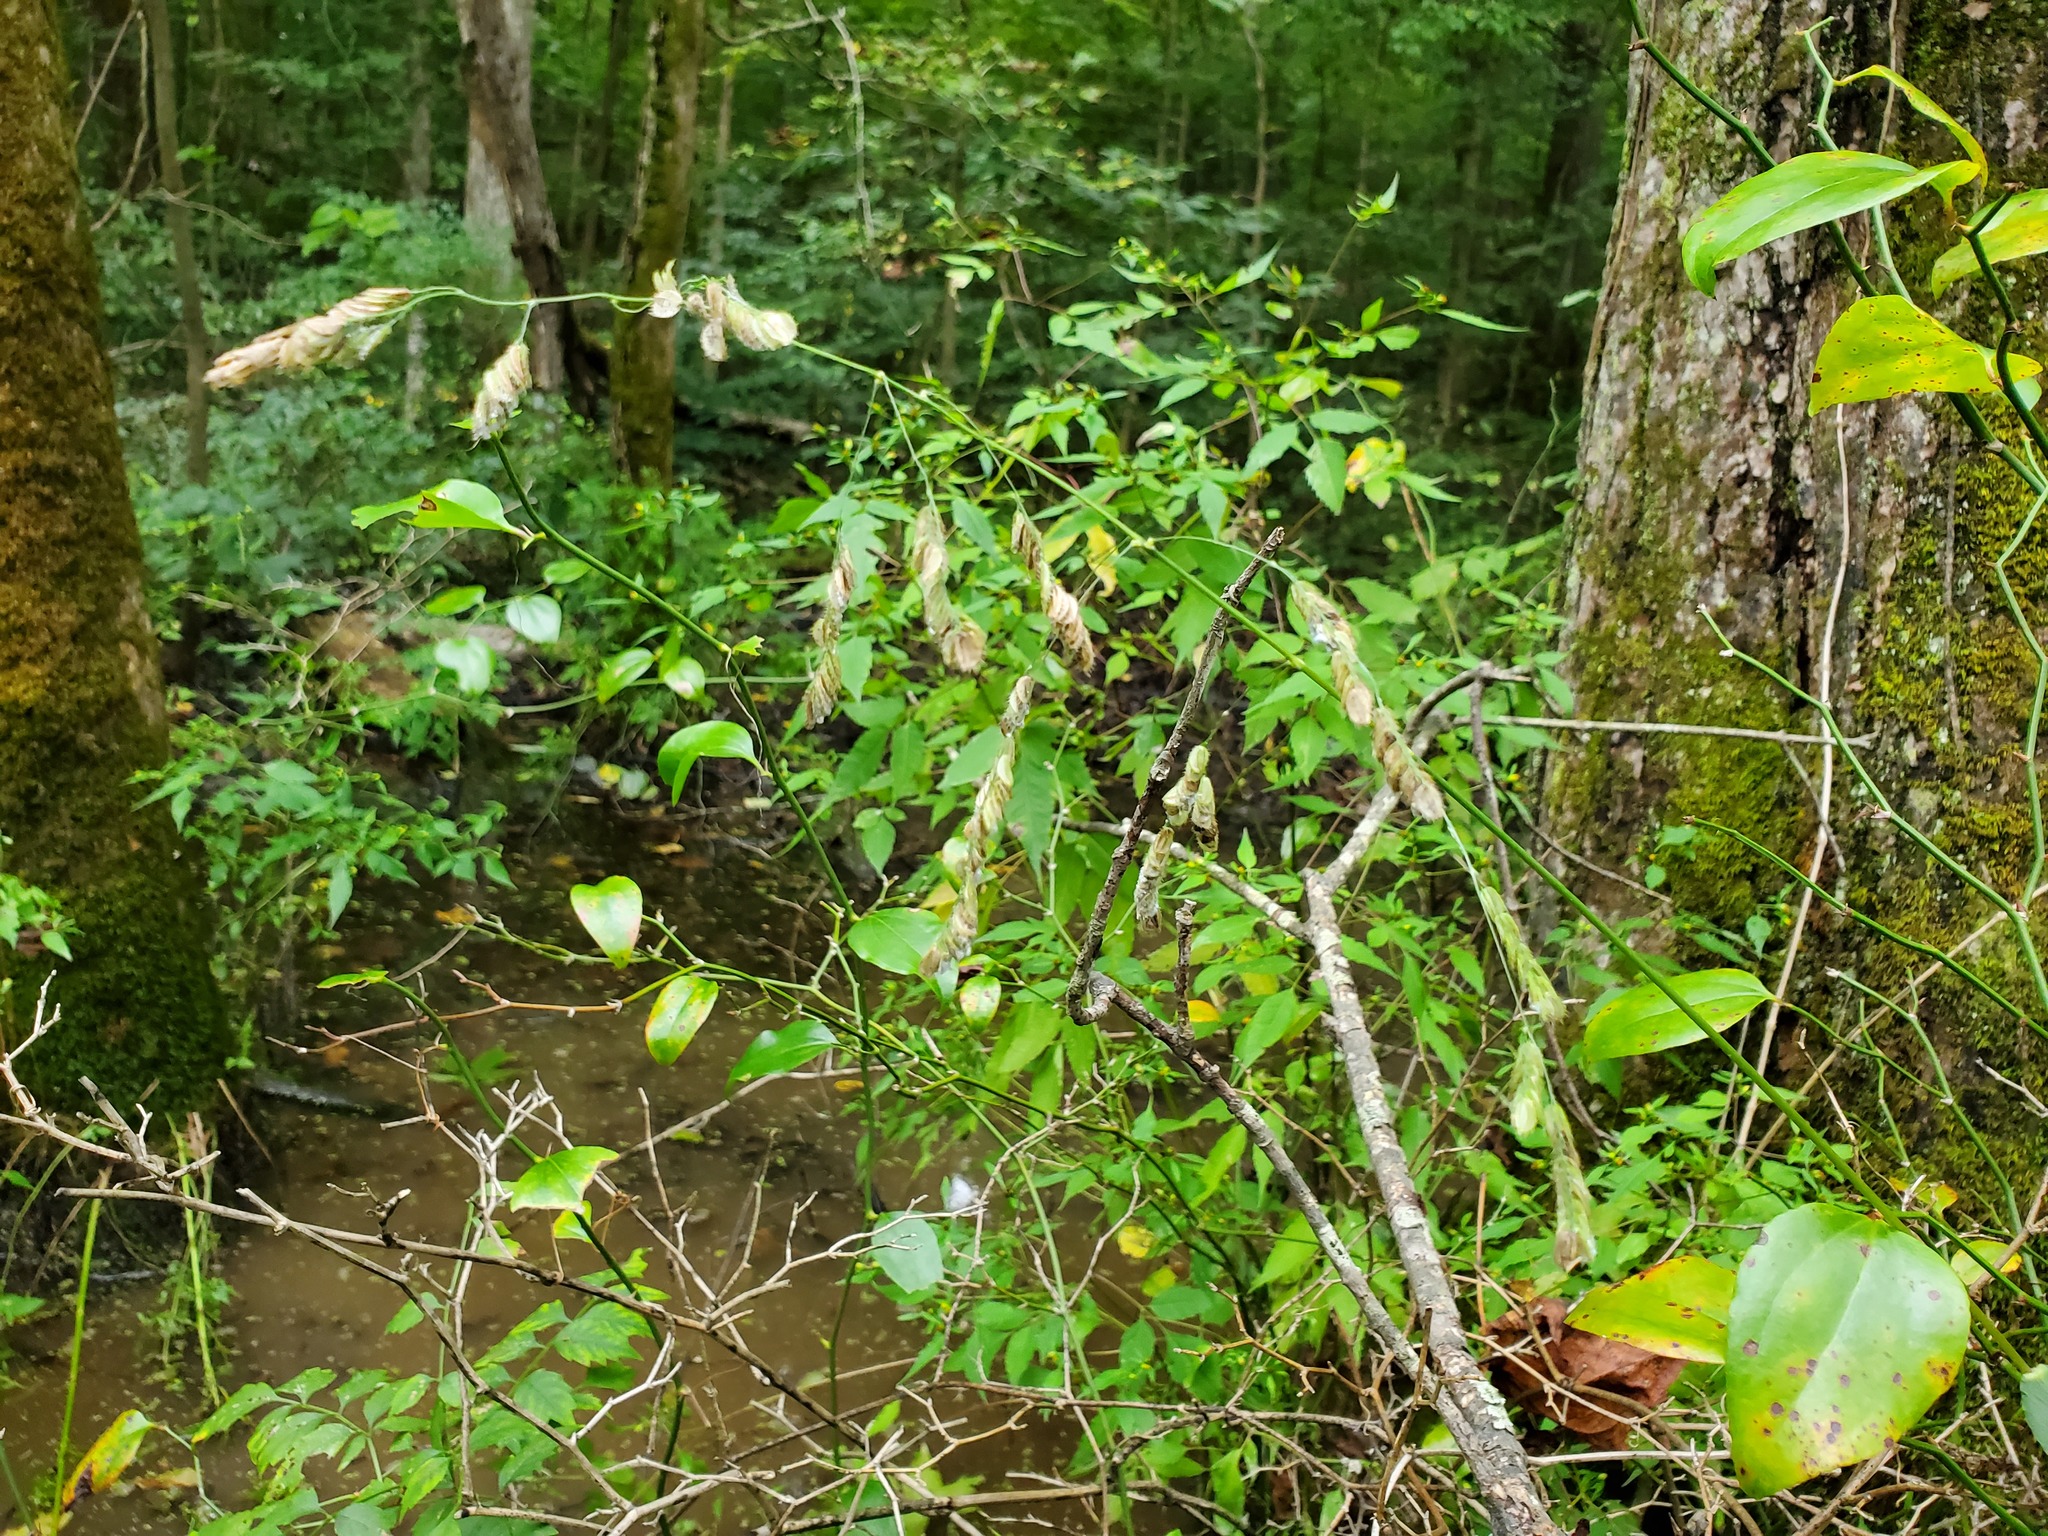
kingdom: Plantae
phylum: Tracheophyta
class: Liliopsida
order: Poales
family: Poaceae
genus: Leersia
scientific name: Leersia lenticularis
